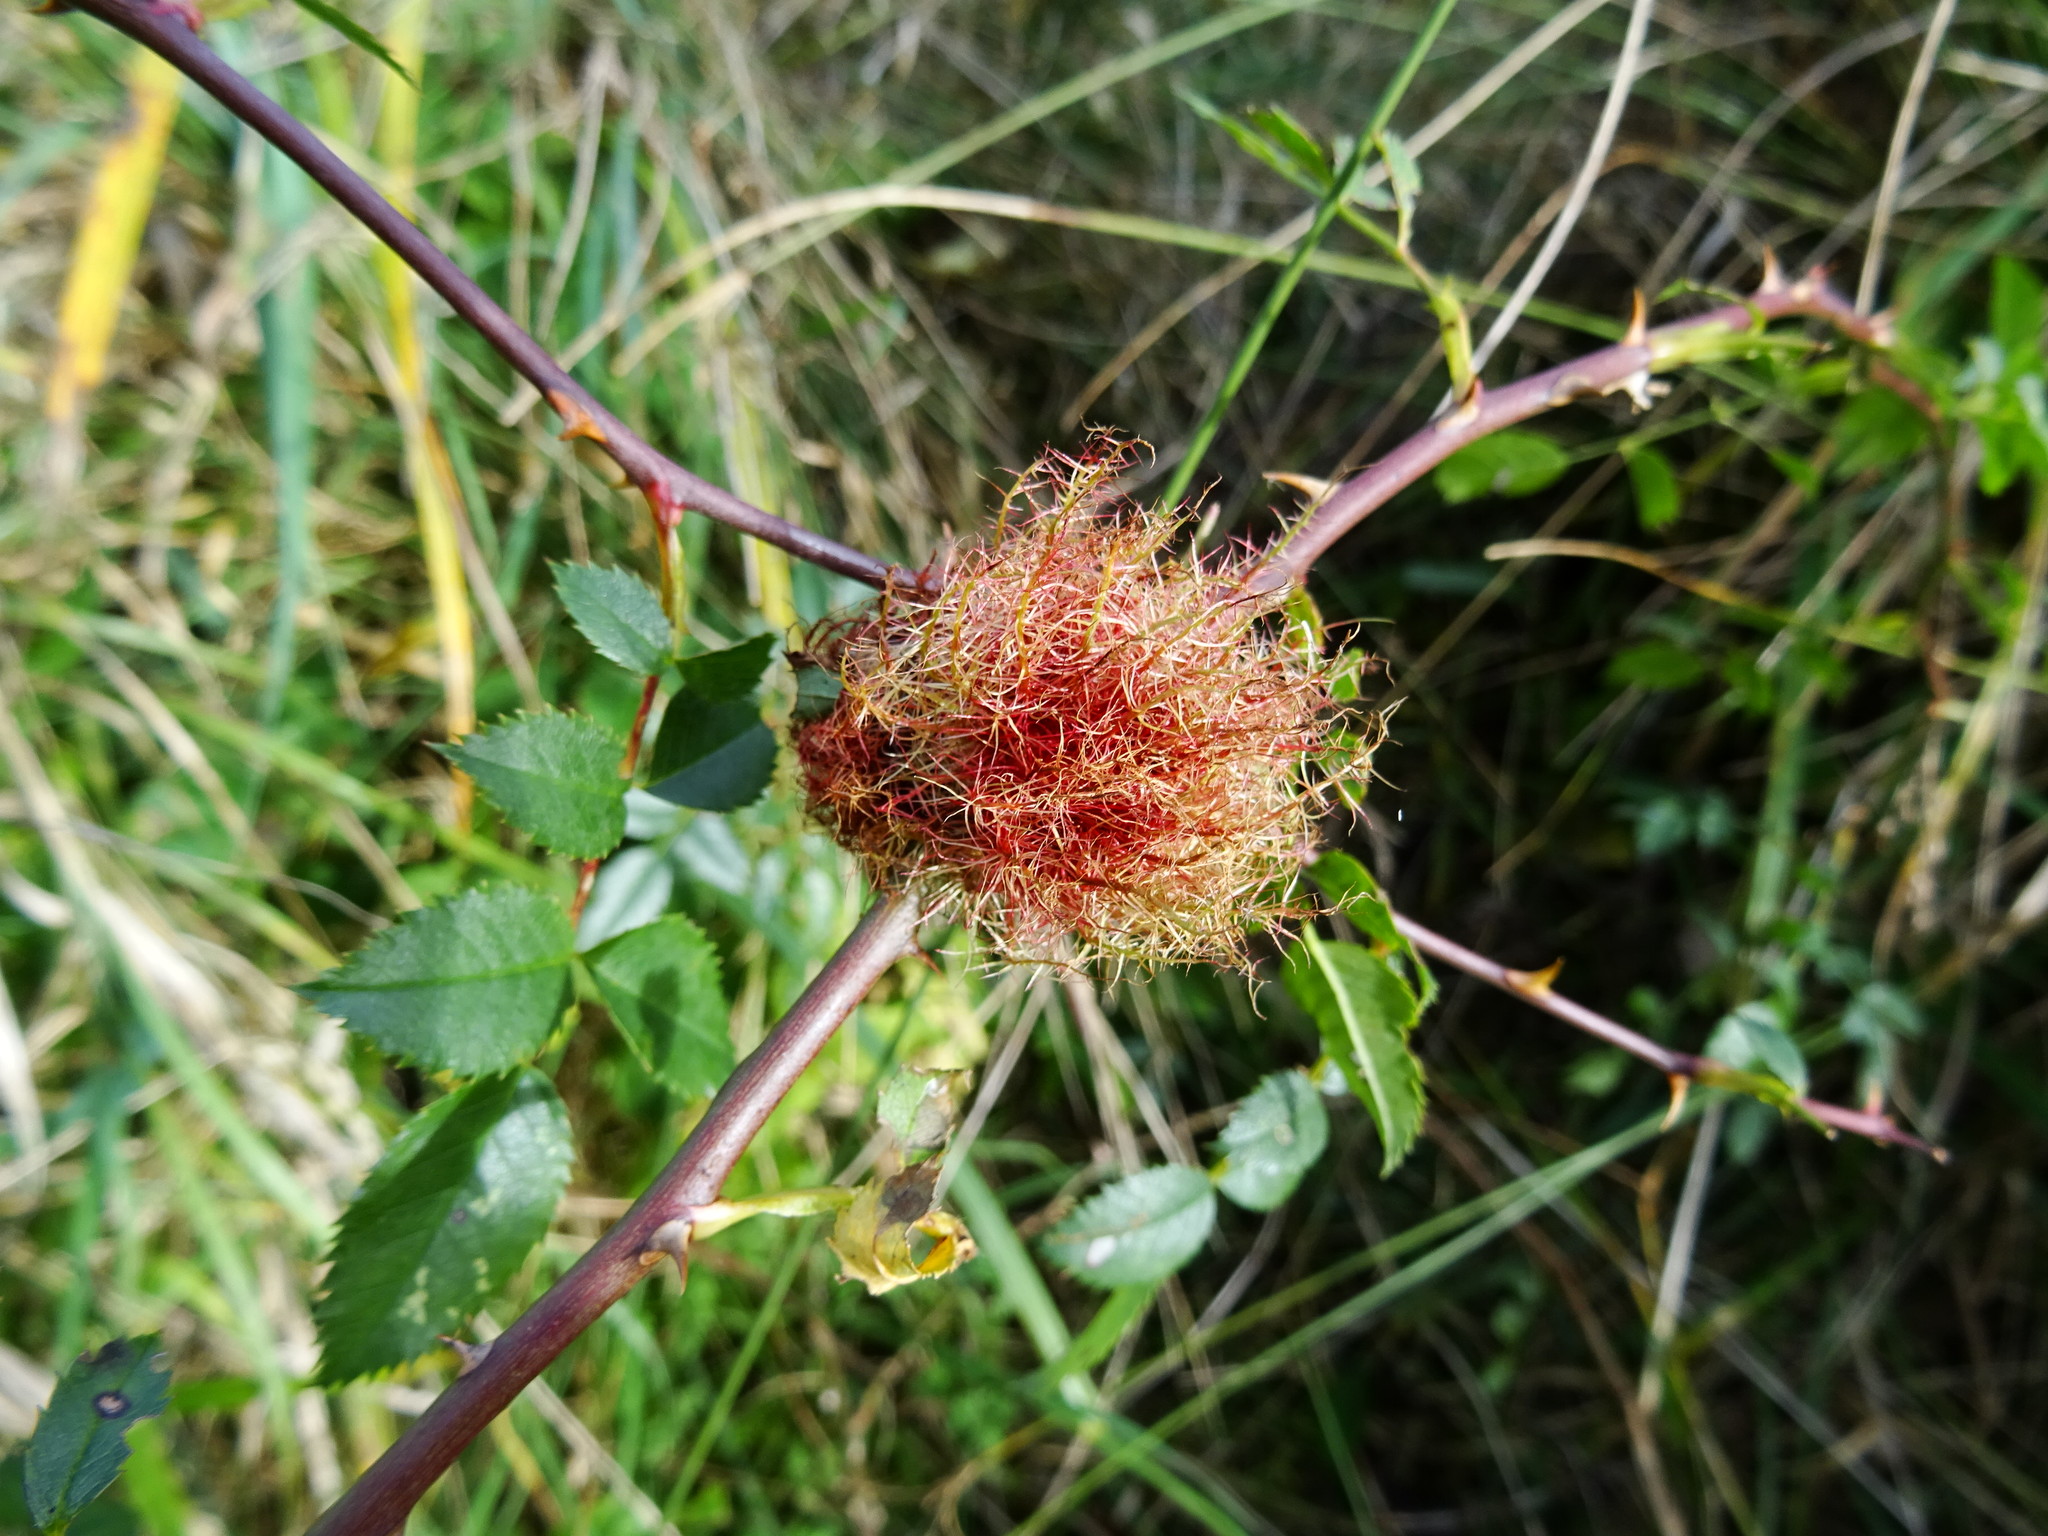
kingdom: Animalia
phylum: Arthropoda
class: Insecta
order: Hymenoptera
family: Cynipidae
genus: Diplolepis
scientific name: Diplolepis rosae
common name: Bedeguar gall
